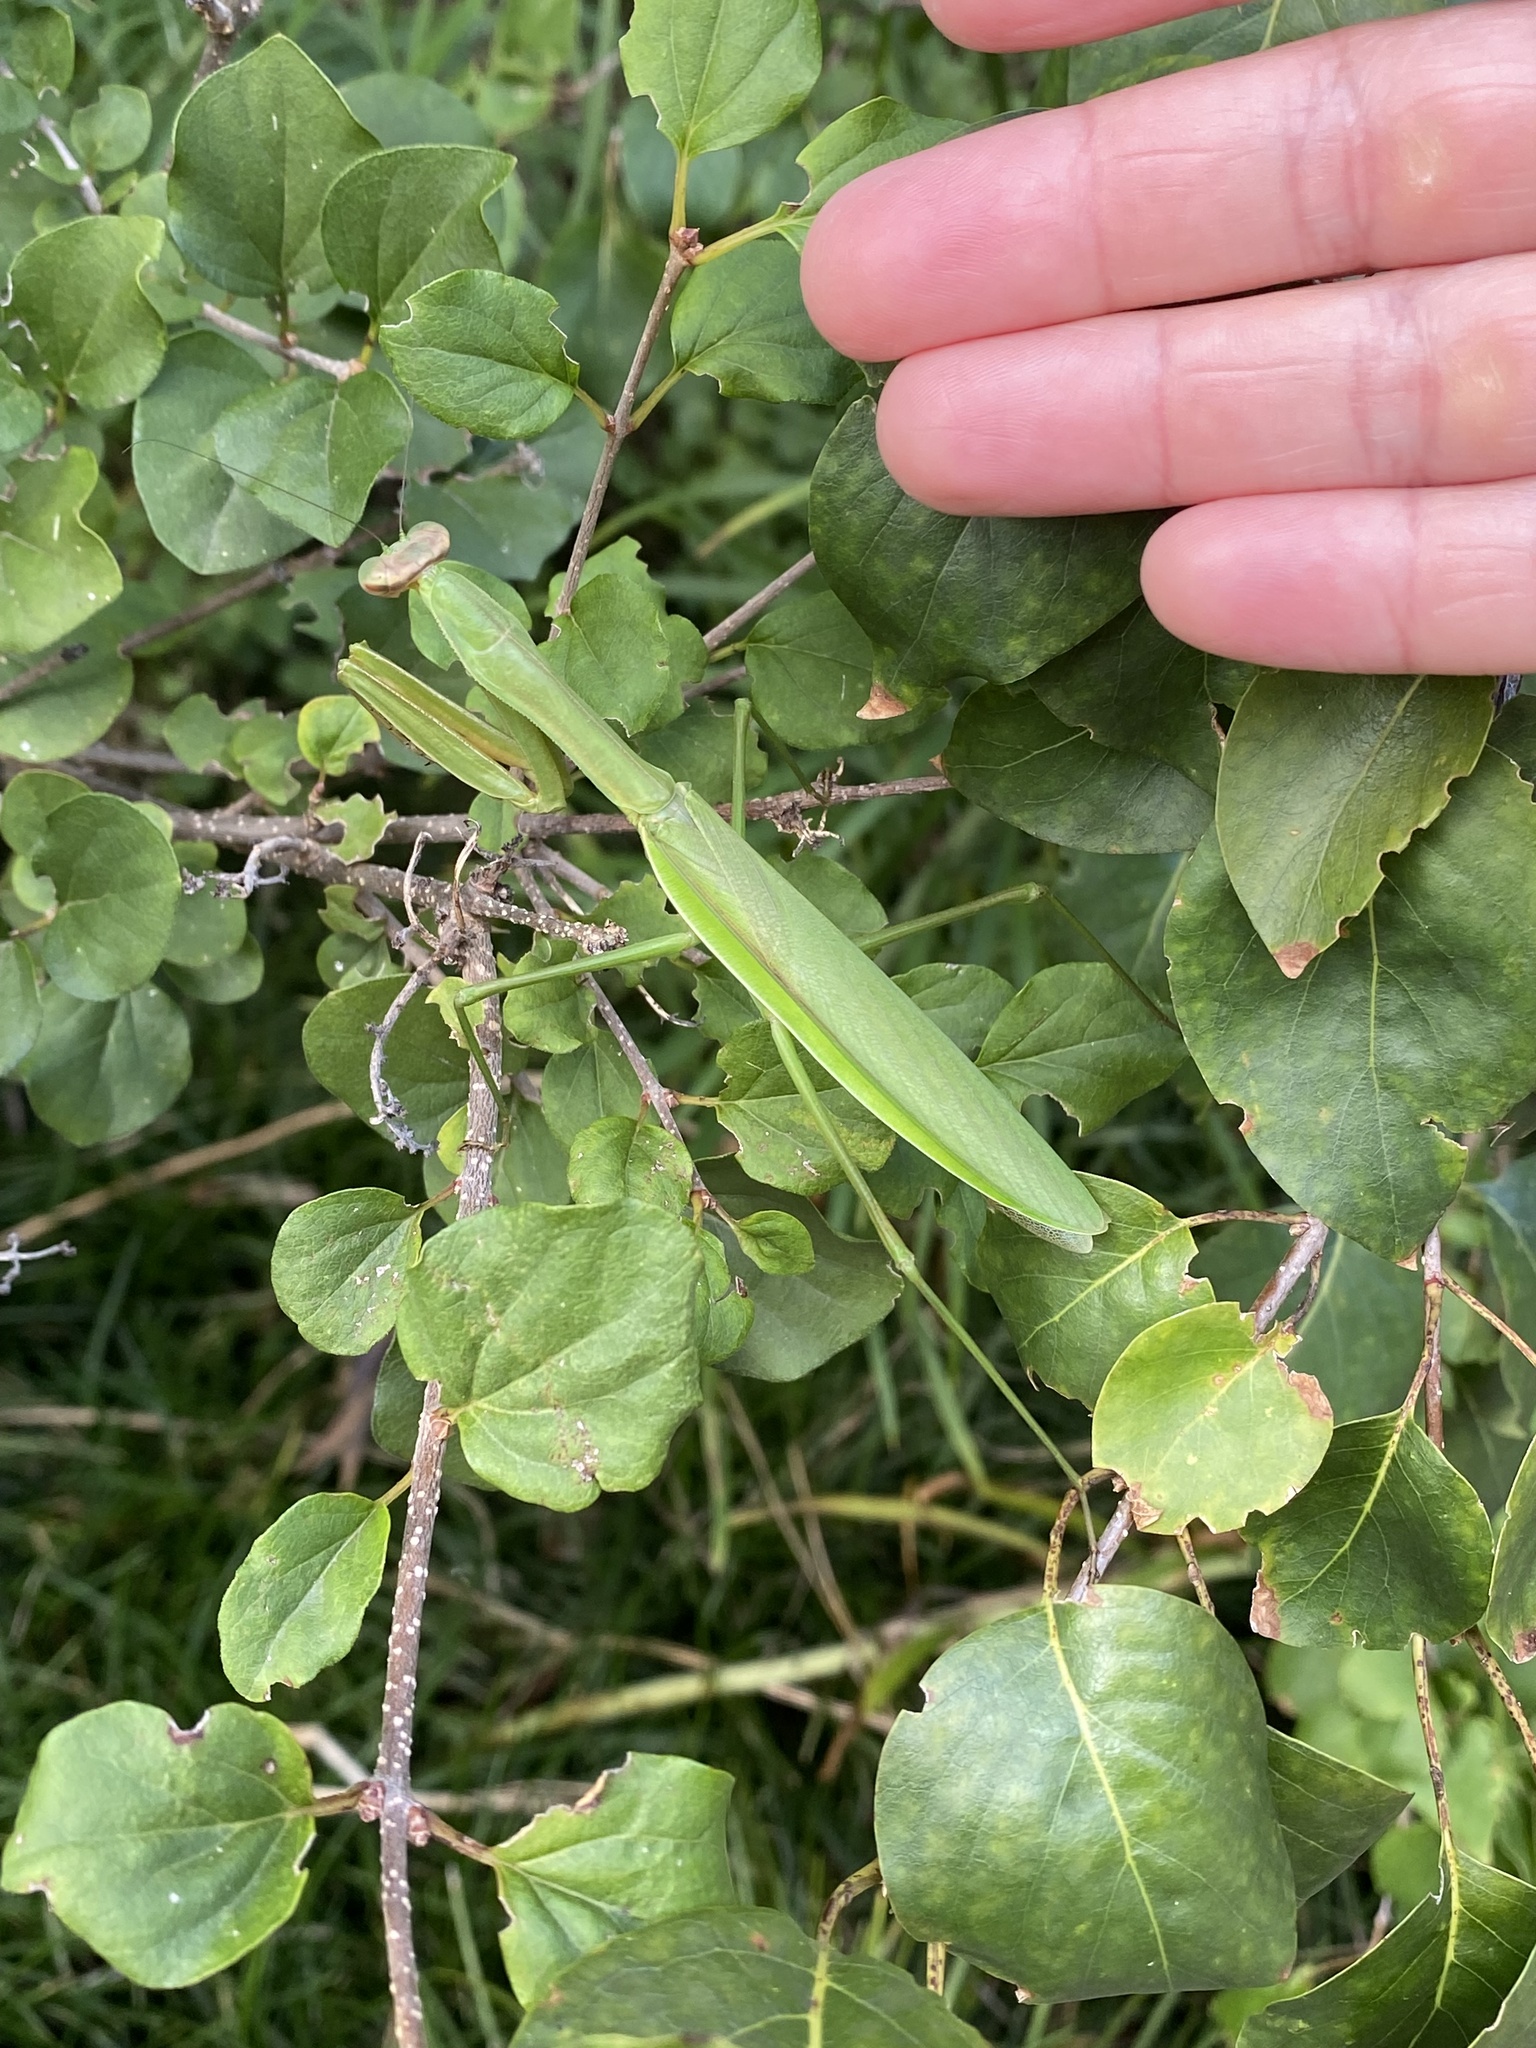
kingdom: Animalia
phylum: Arthropoda
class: Insecta
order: Mantodea
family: Mantidae
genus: Tenodera
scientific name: Tenodera sinensis
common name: Chinese mantis
